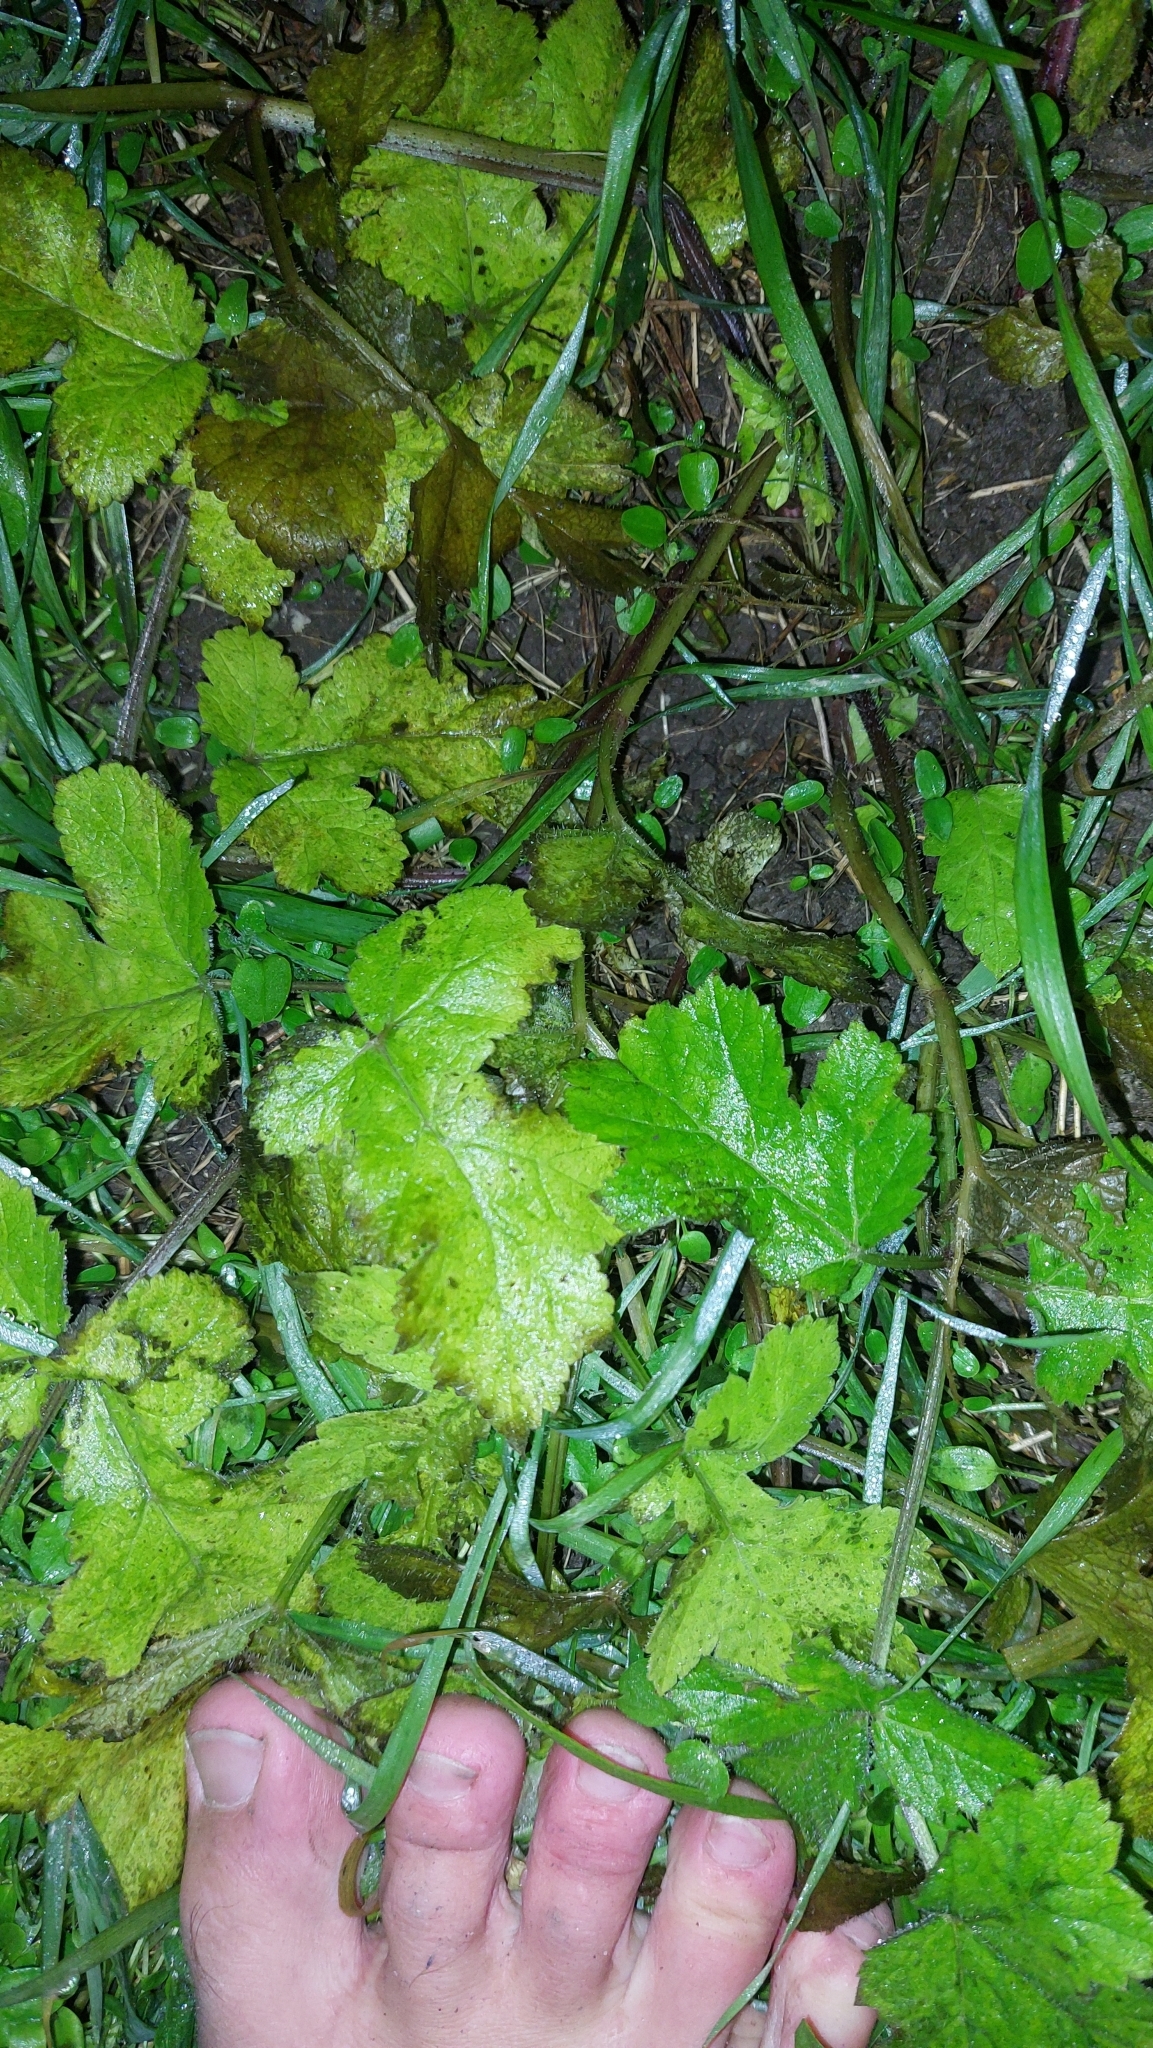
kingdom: Plantae
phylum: Tracheophyta
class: Magnoliopsida
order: Apiales
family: Apiaceae
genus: Heracleum
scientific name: Heracleum sphondylium
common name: Hogweed
